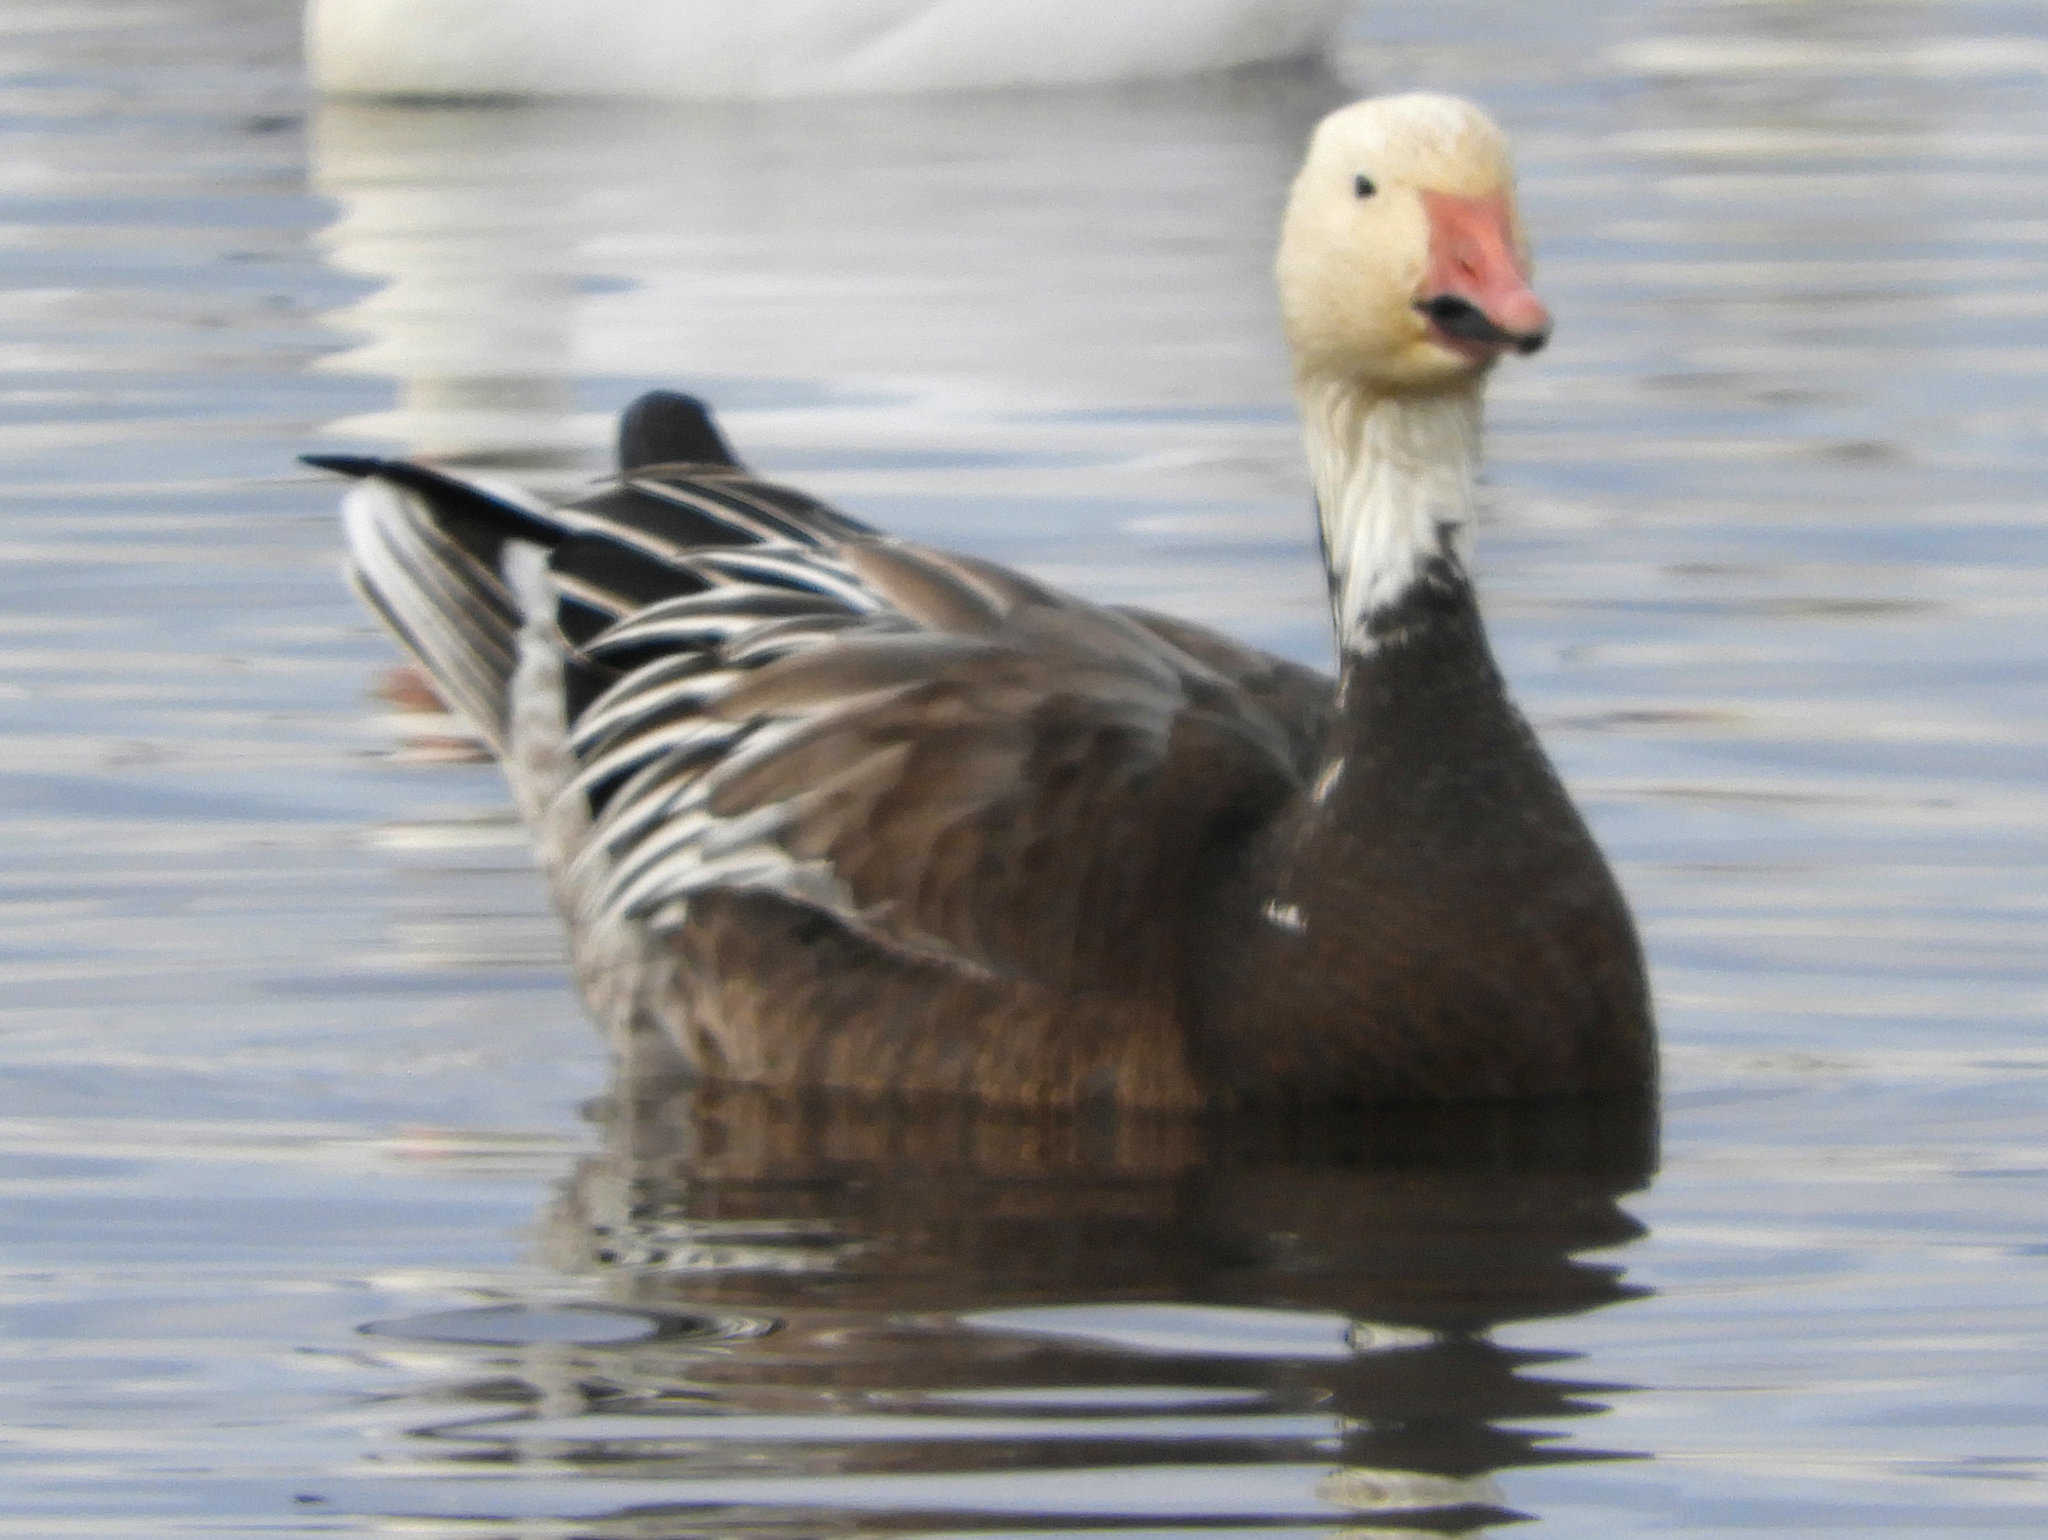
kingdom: Animalia
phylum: Chordata
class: Aves
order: Anseriformes
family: Anatidae
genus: Anser
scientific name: Anser caerulescens
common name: Snow goose
